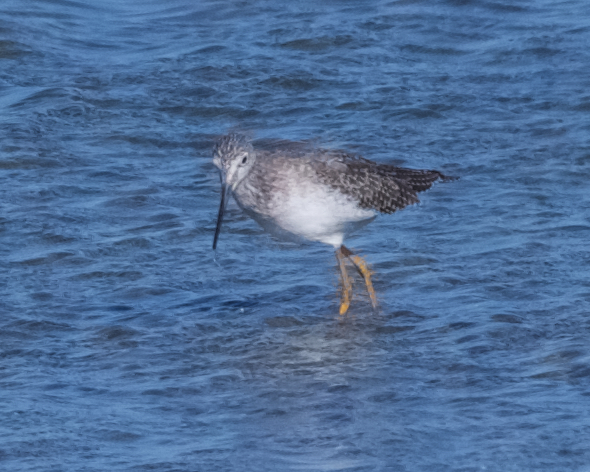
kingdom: Animalia
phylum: Chordata
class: Aves
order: Charadriiformes
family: Scolopacidae
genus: Tringa
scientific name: Tringa melanoleuca
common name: Greater yellowlegs
